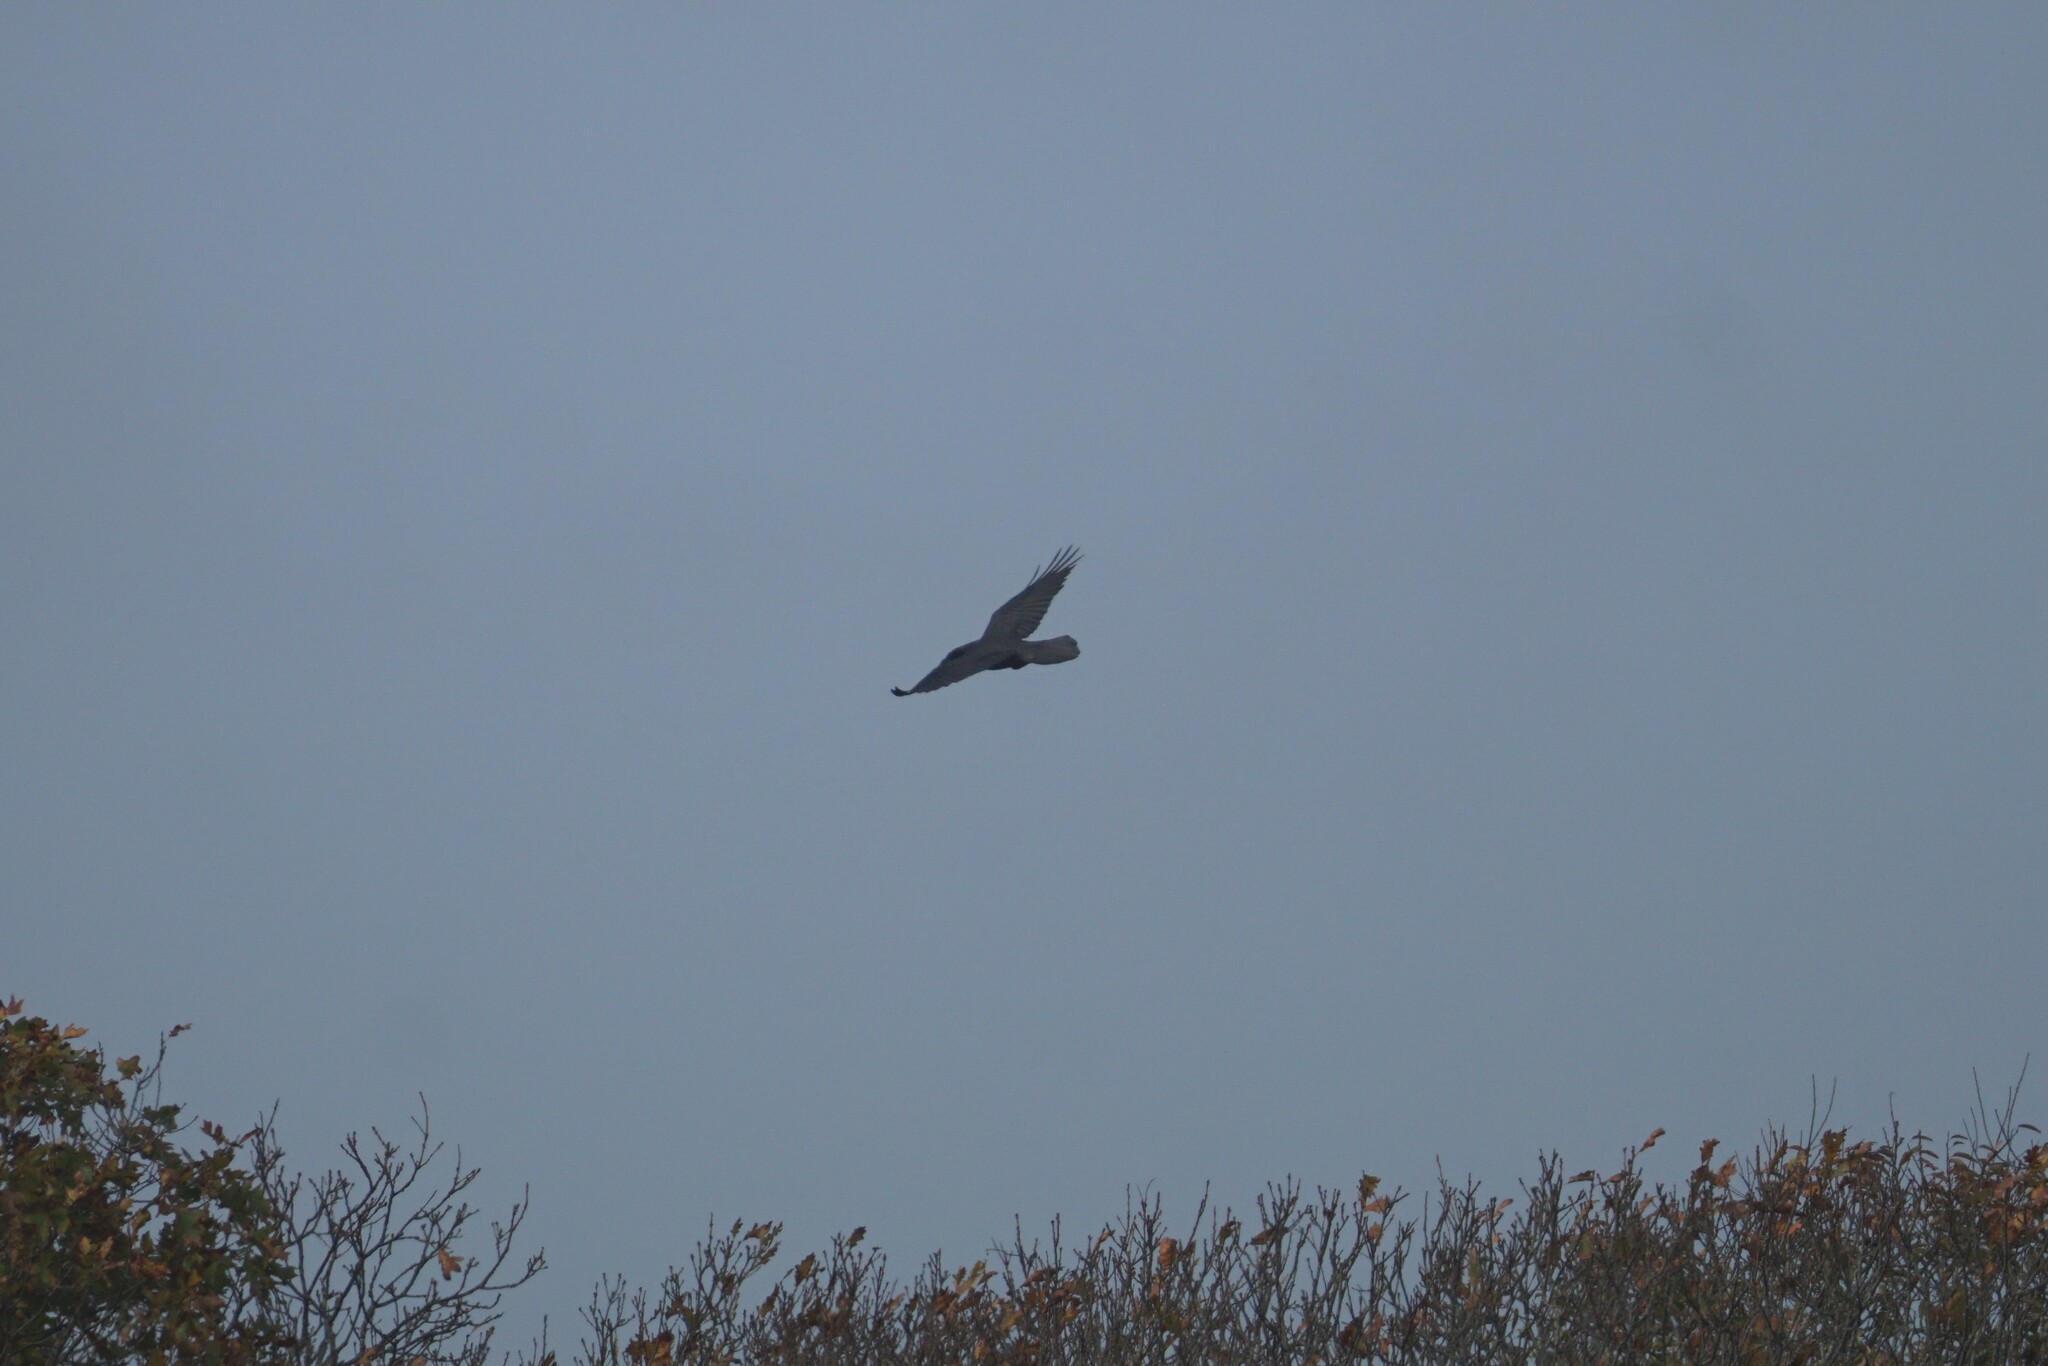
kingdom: Animalia
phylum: Chordata
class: Aves
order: Passeriformes
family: Corvidae
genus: Corvus
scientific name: Corvus corax
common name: Common raven
